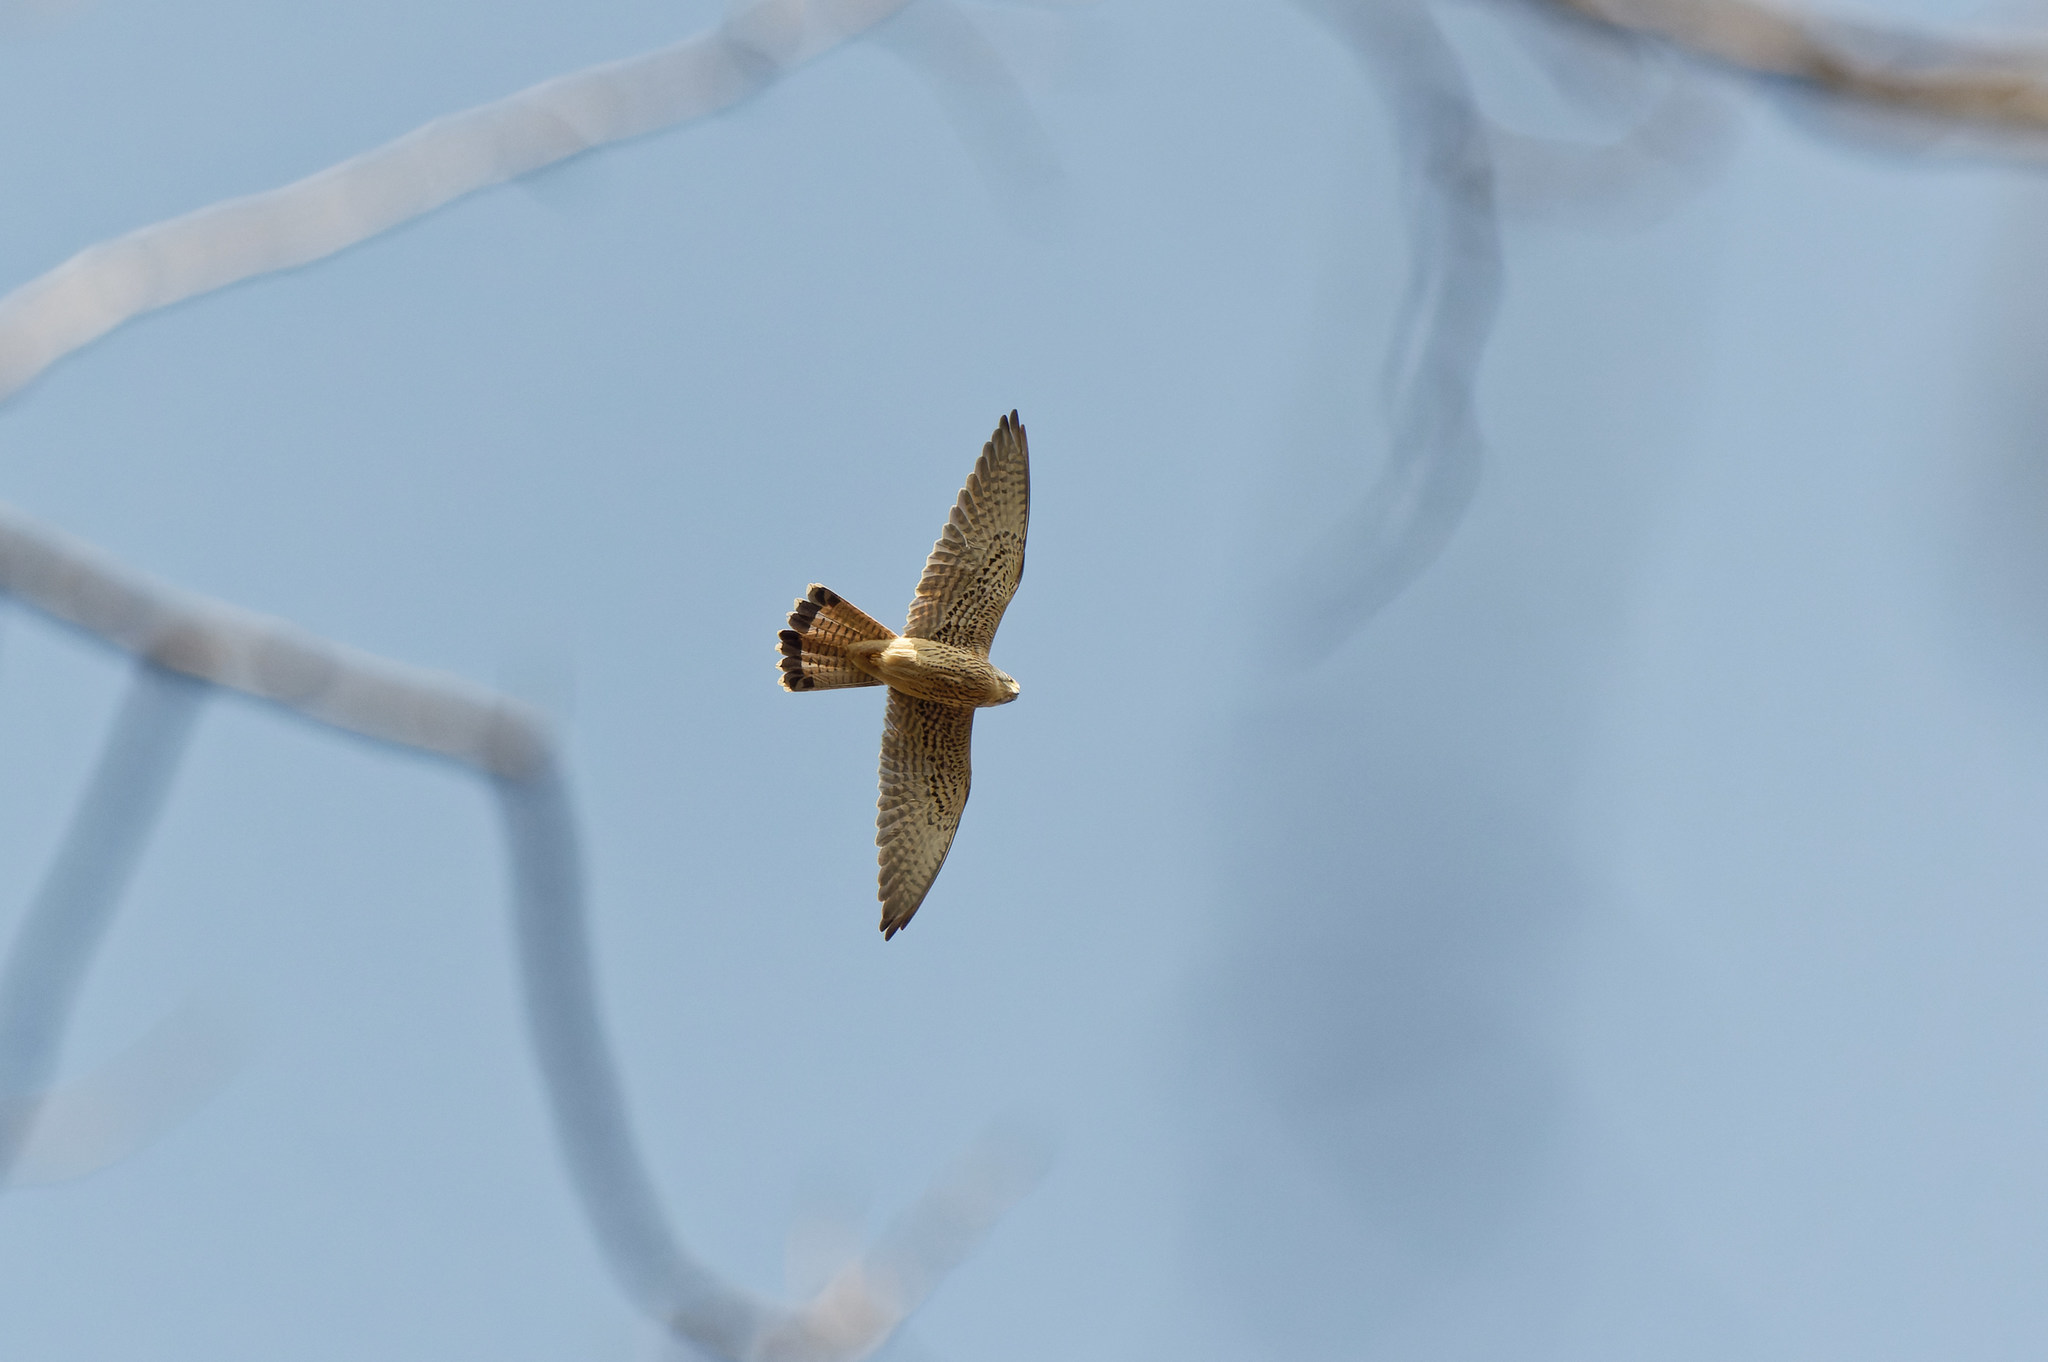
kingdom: Animalia
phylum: Chordata
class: Aves
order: Falconiformes
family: Falconidae
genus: Falco
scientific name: Falco tinnunculus
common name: Common kestrel
